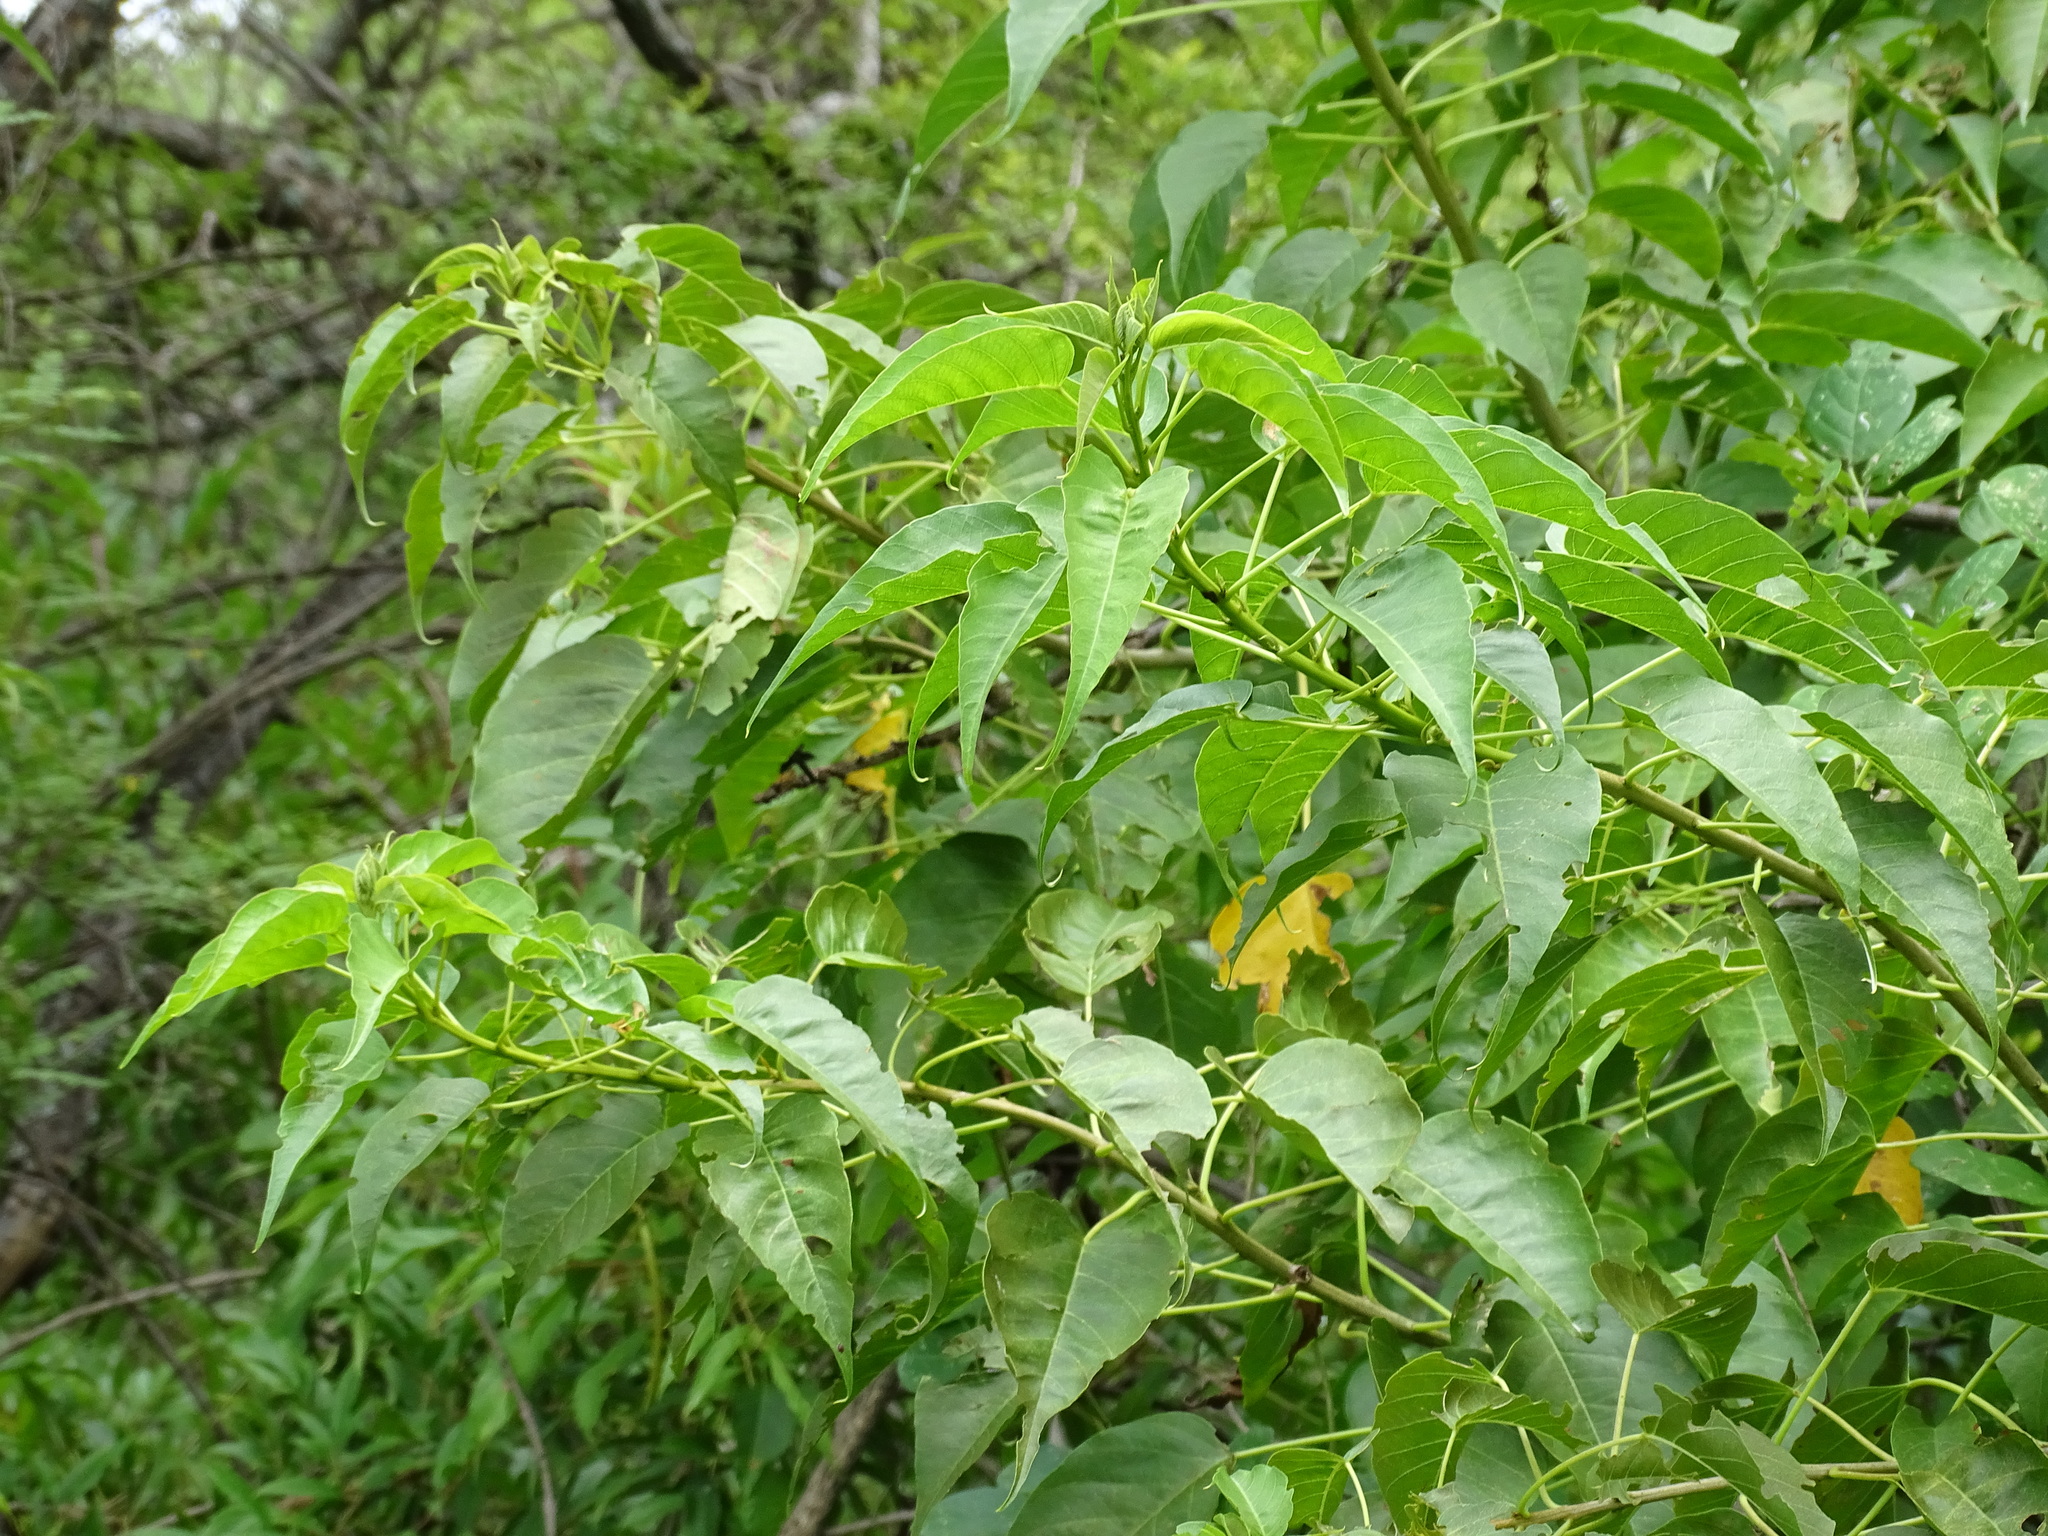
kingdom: Plantae
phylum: Tracheophyta
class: Magnoliopsida
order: Solanales
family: Convolvulaceae
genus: Ipomoea
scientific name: Ipomoea pauciflora
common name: Tree morningglory
